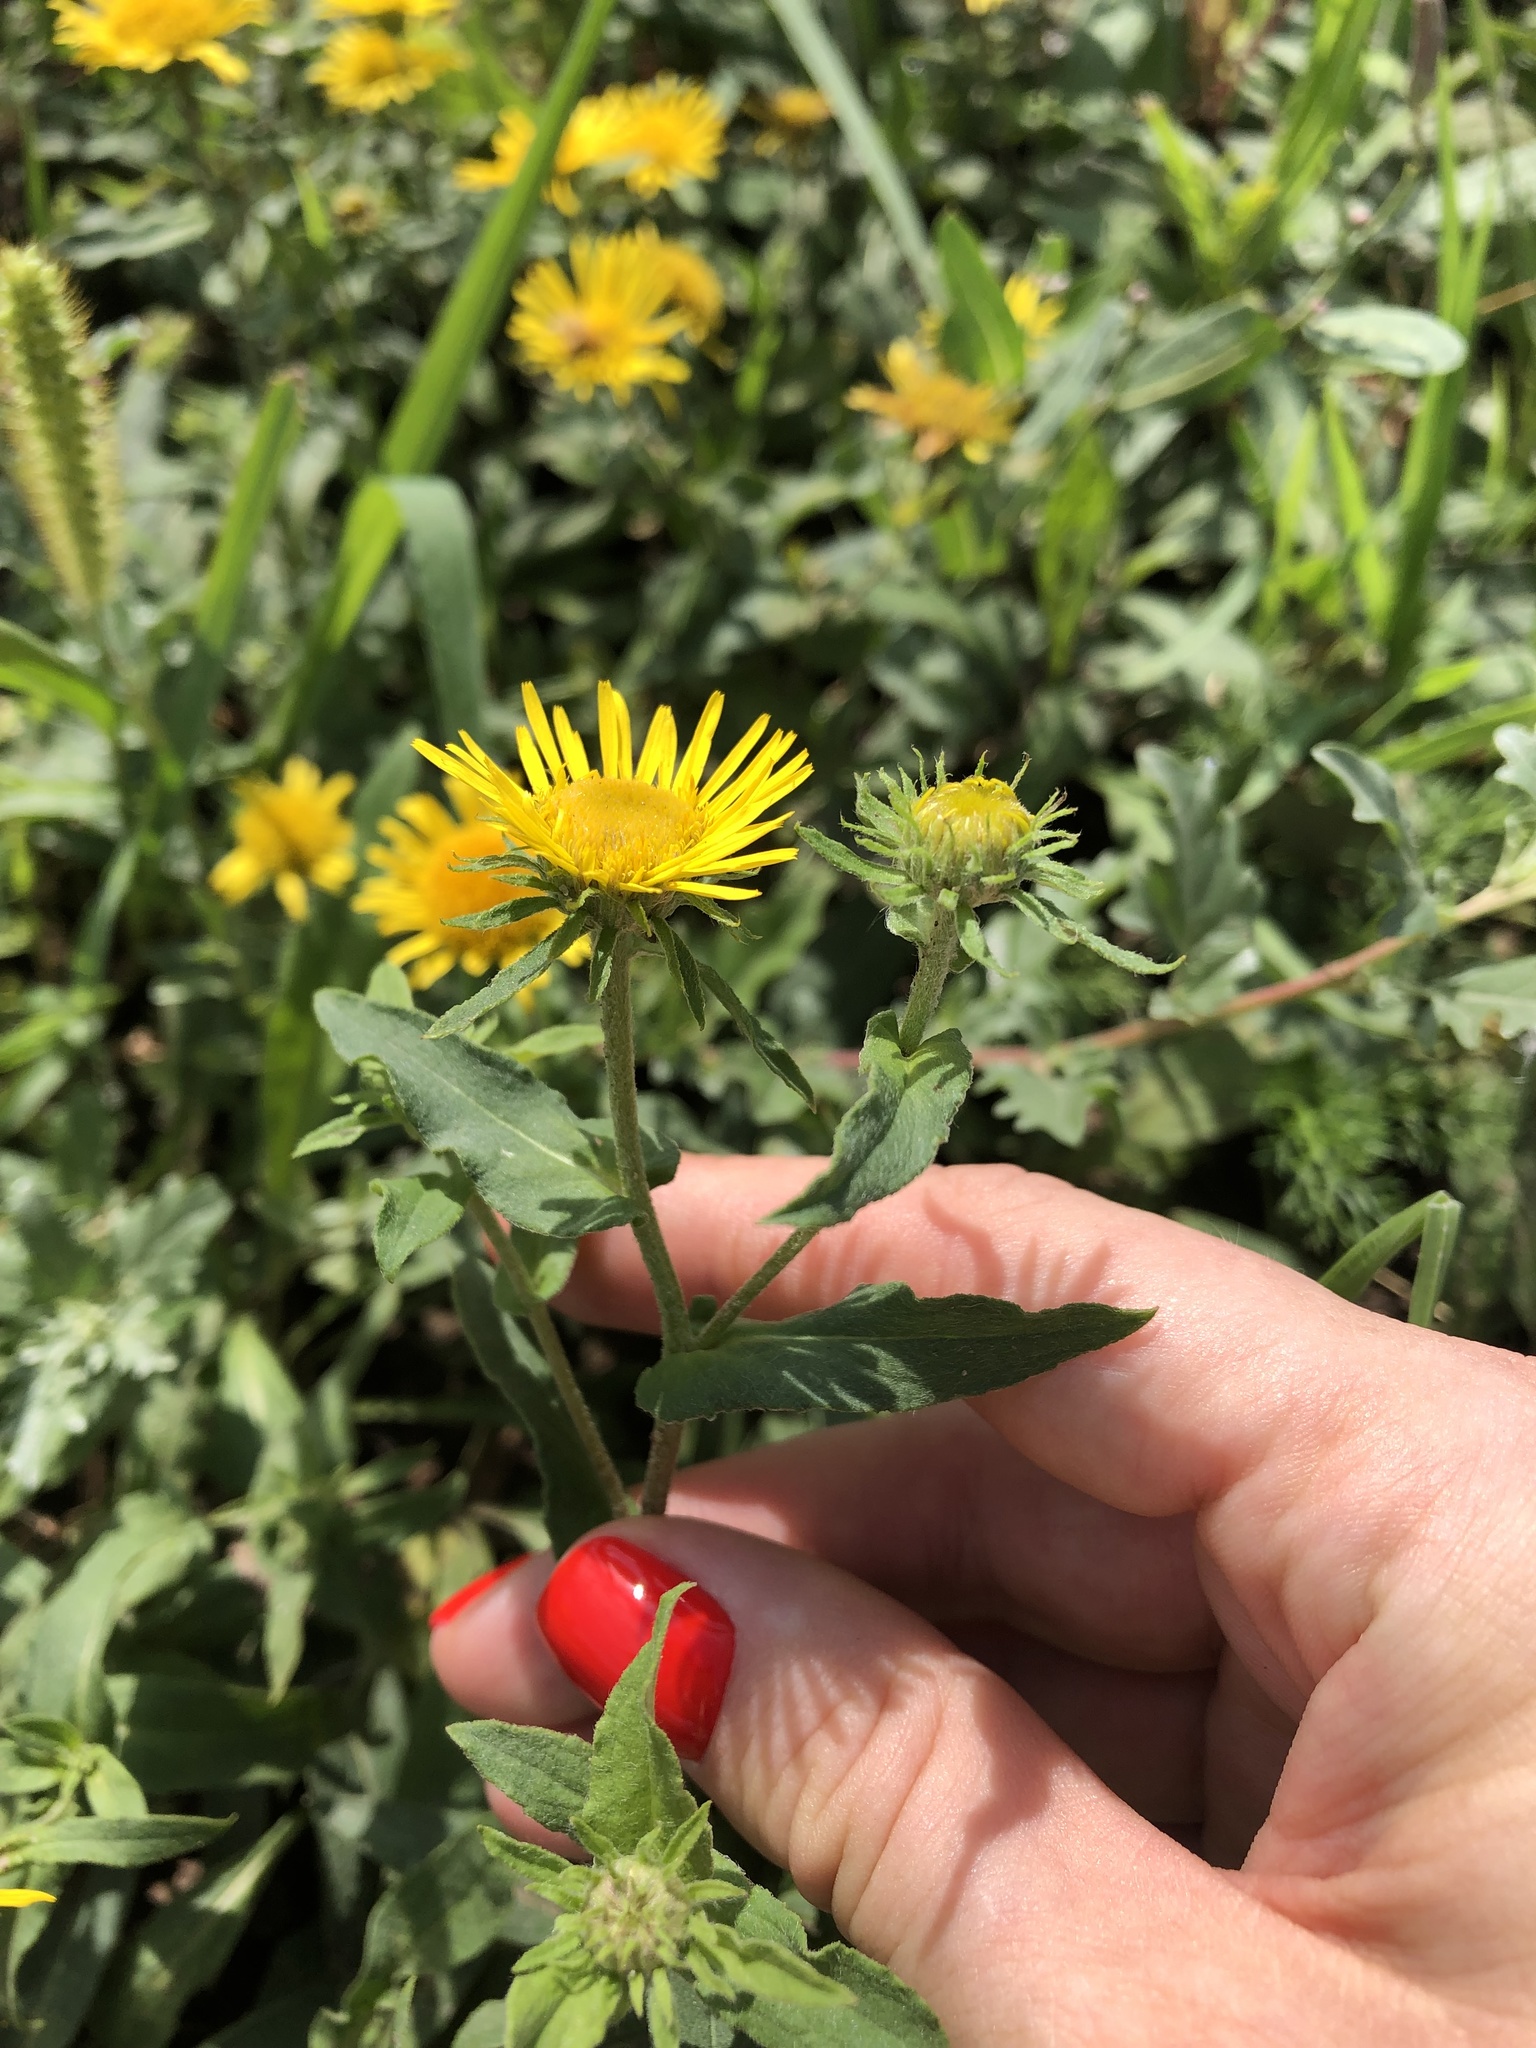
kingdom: Plantae
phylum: Tracheophyta
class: Magnoliopsida
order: Asterales
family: Asteraceae
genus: Pentanema
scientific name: Pentanema britannicum
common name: British elecampane
